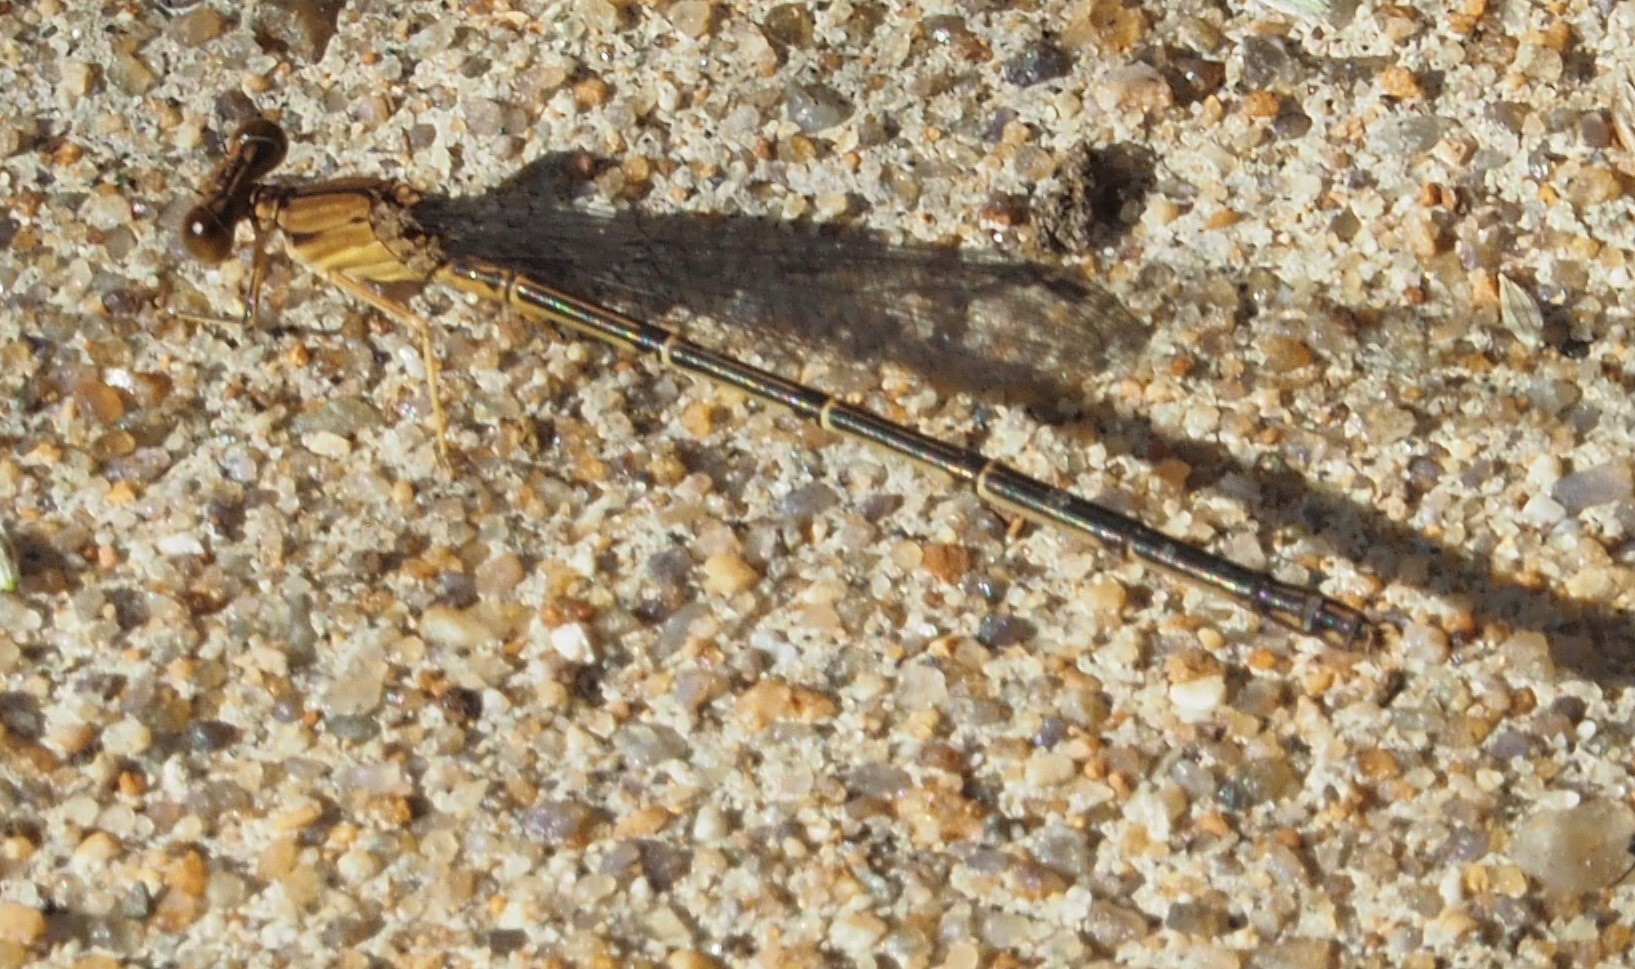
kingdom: Animalia
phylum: Arthropoda
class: Insecta
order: Odonata
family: Coenagrionidae
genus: Argia
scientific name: Argia apicalis
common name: Blue-fronted dancer
